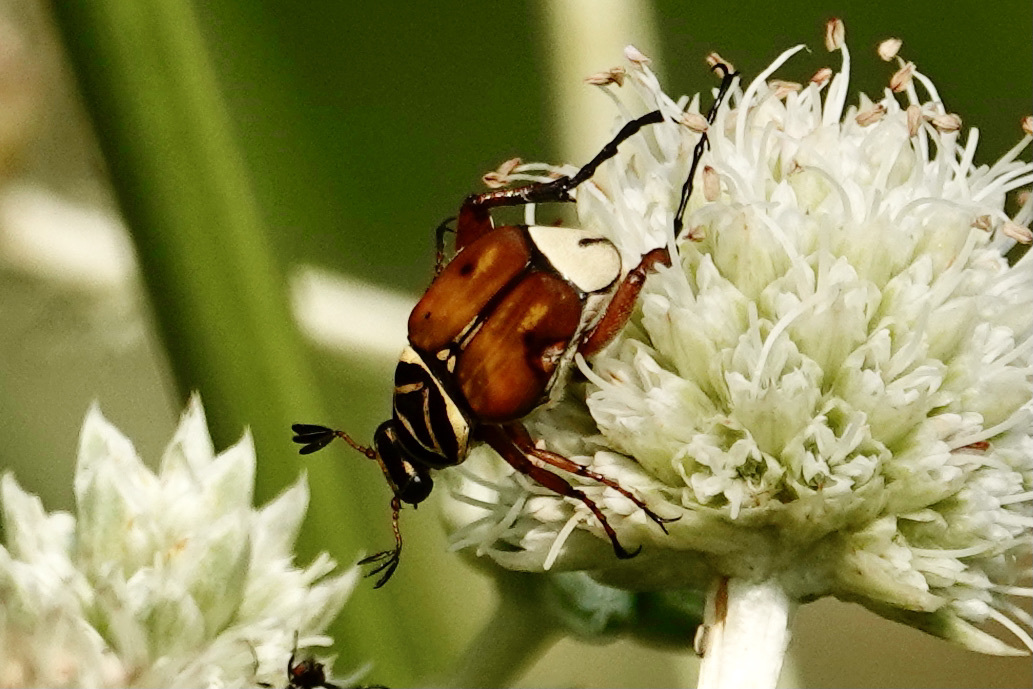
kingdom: Animalia
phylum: Arthropoda
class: Insecta
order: Coleoptera
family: Scarabaeidae
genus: Trigonopeltastes
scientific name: Trigonopeltastes delta
